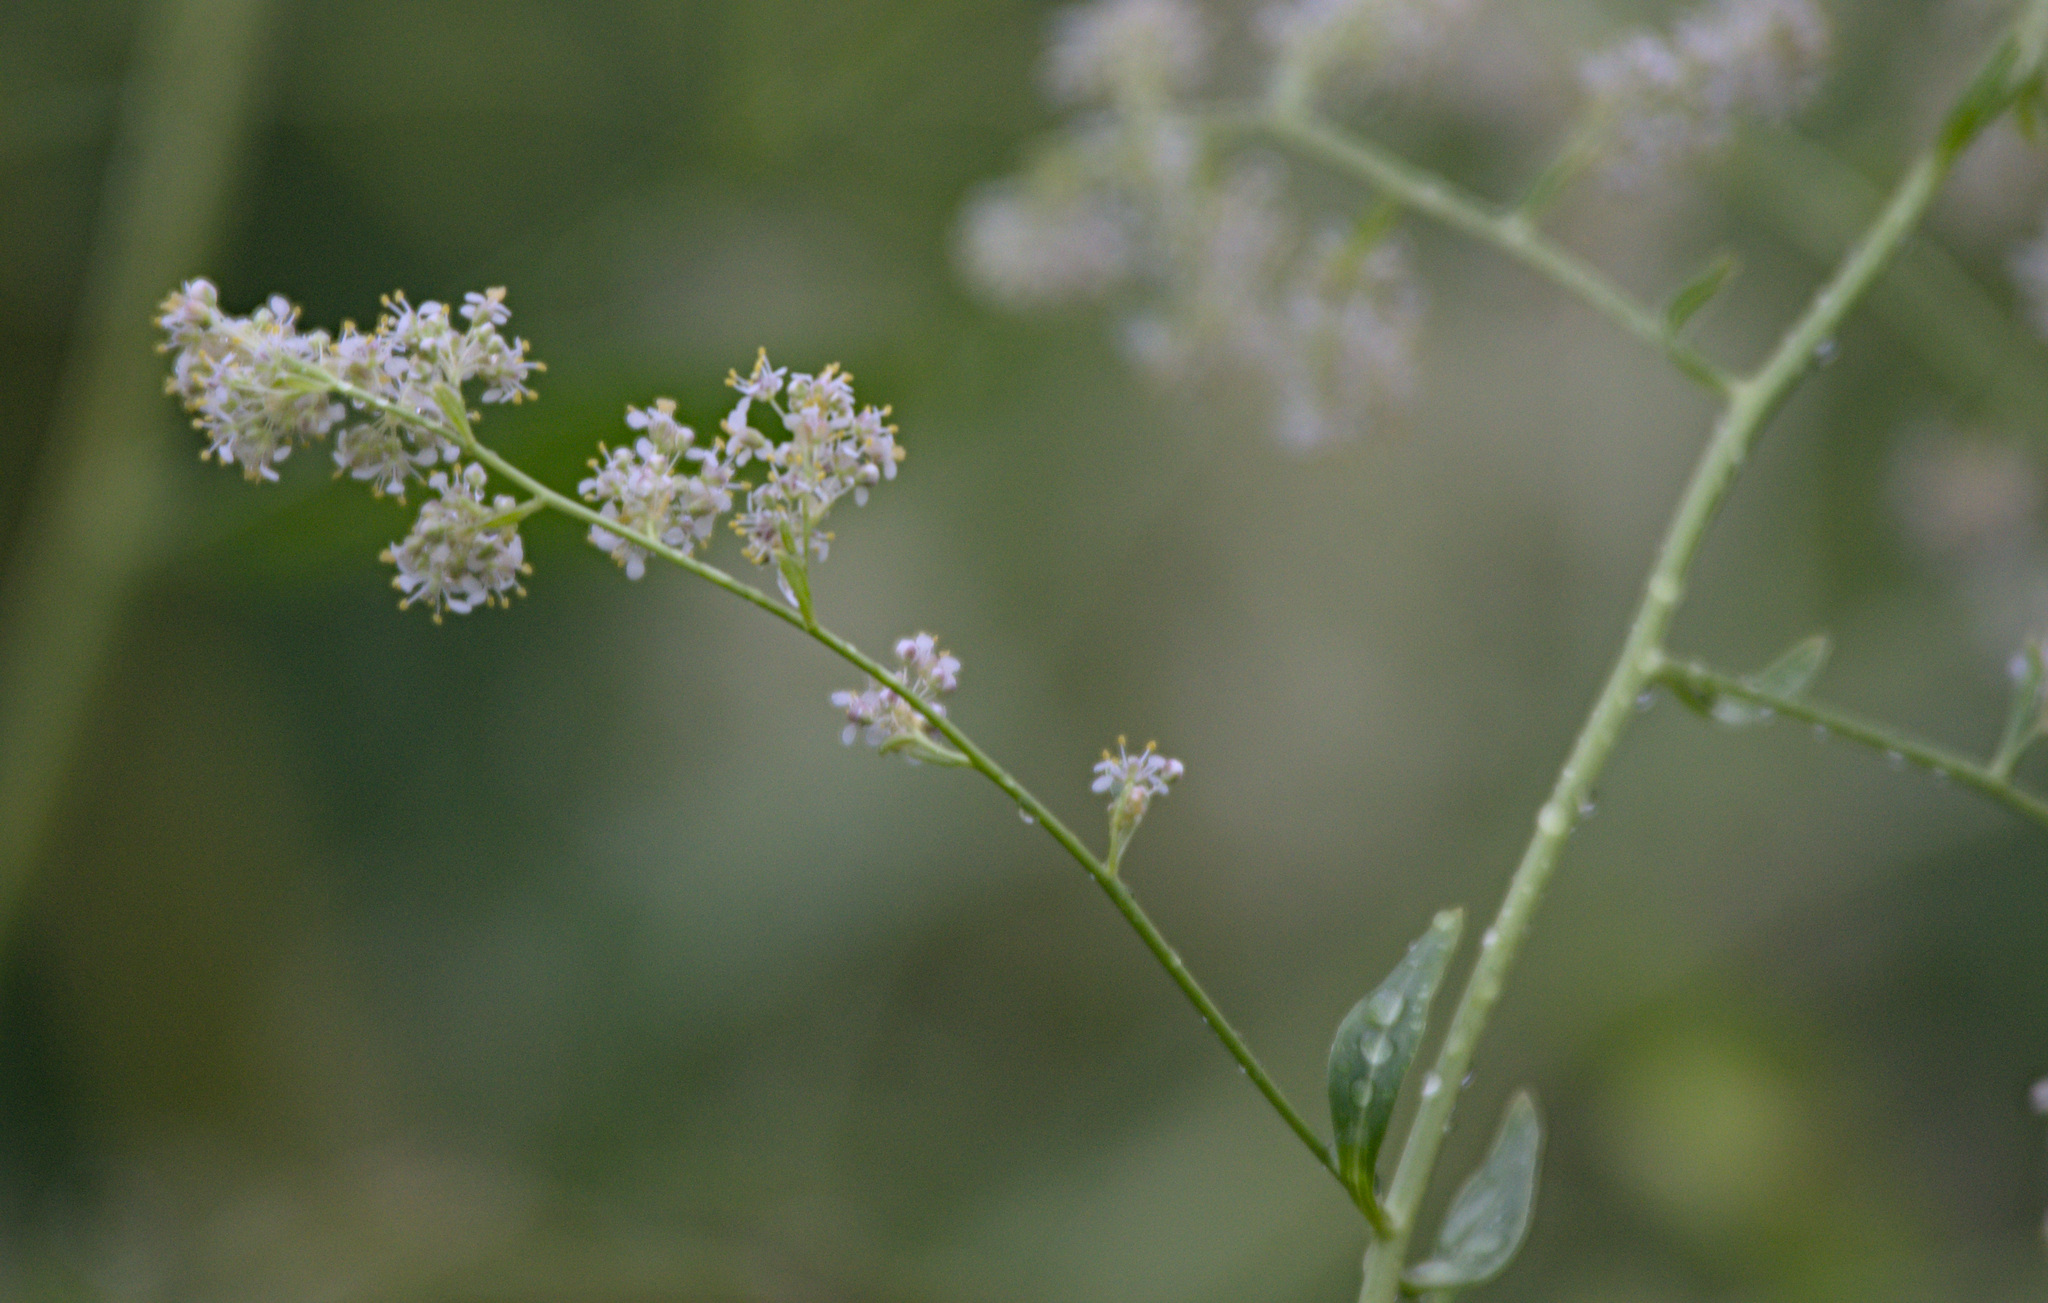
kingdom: Plantae
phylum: Tracheophyta
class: Magnoliopsida
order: Brassicales
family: Brassicaceae
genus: Lepidium
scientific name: Lepidium latifolium
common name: Dittander
